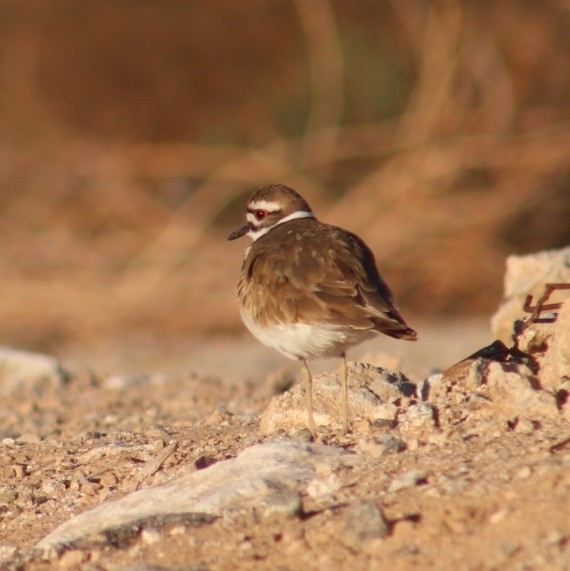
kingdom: Animalia
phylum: Chordata
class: Aves
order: Charadriiformes
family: Charadriidae
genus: Charadrius
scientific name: Charadrius vociferus
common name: Killdeer
